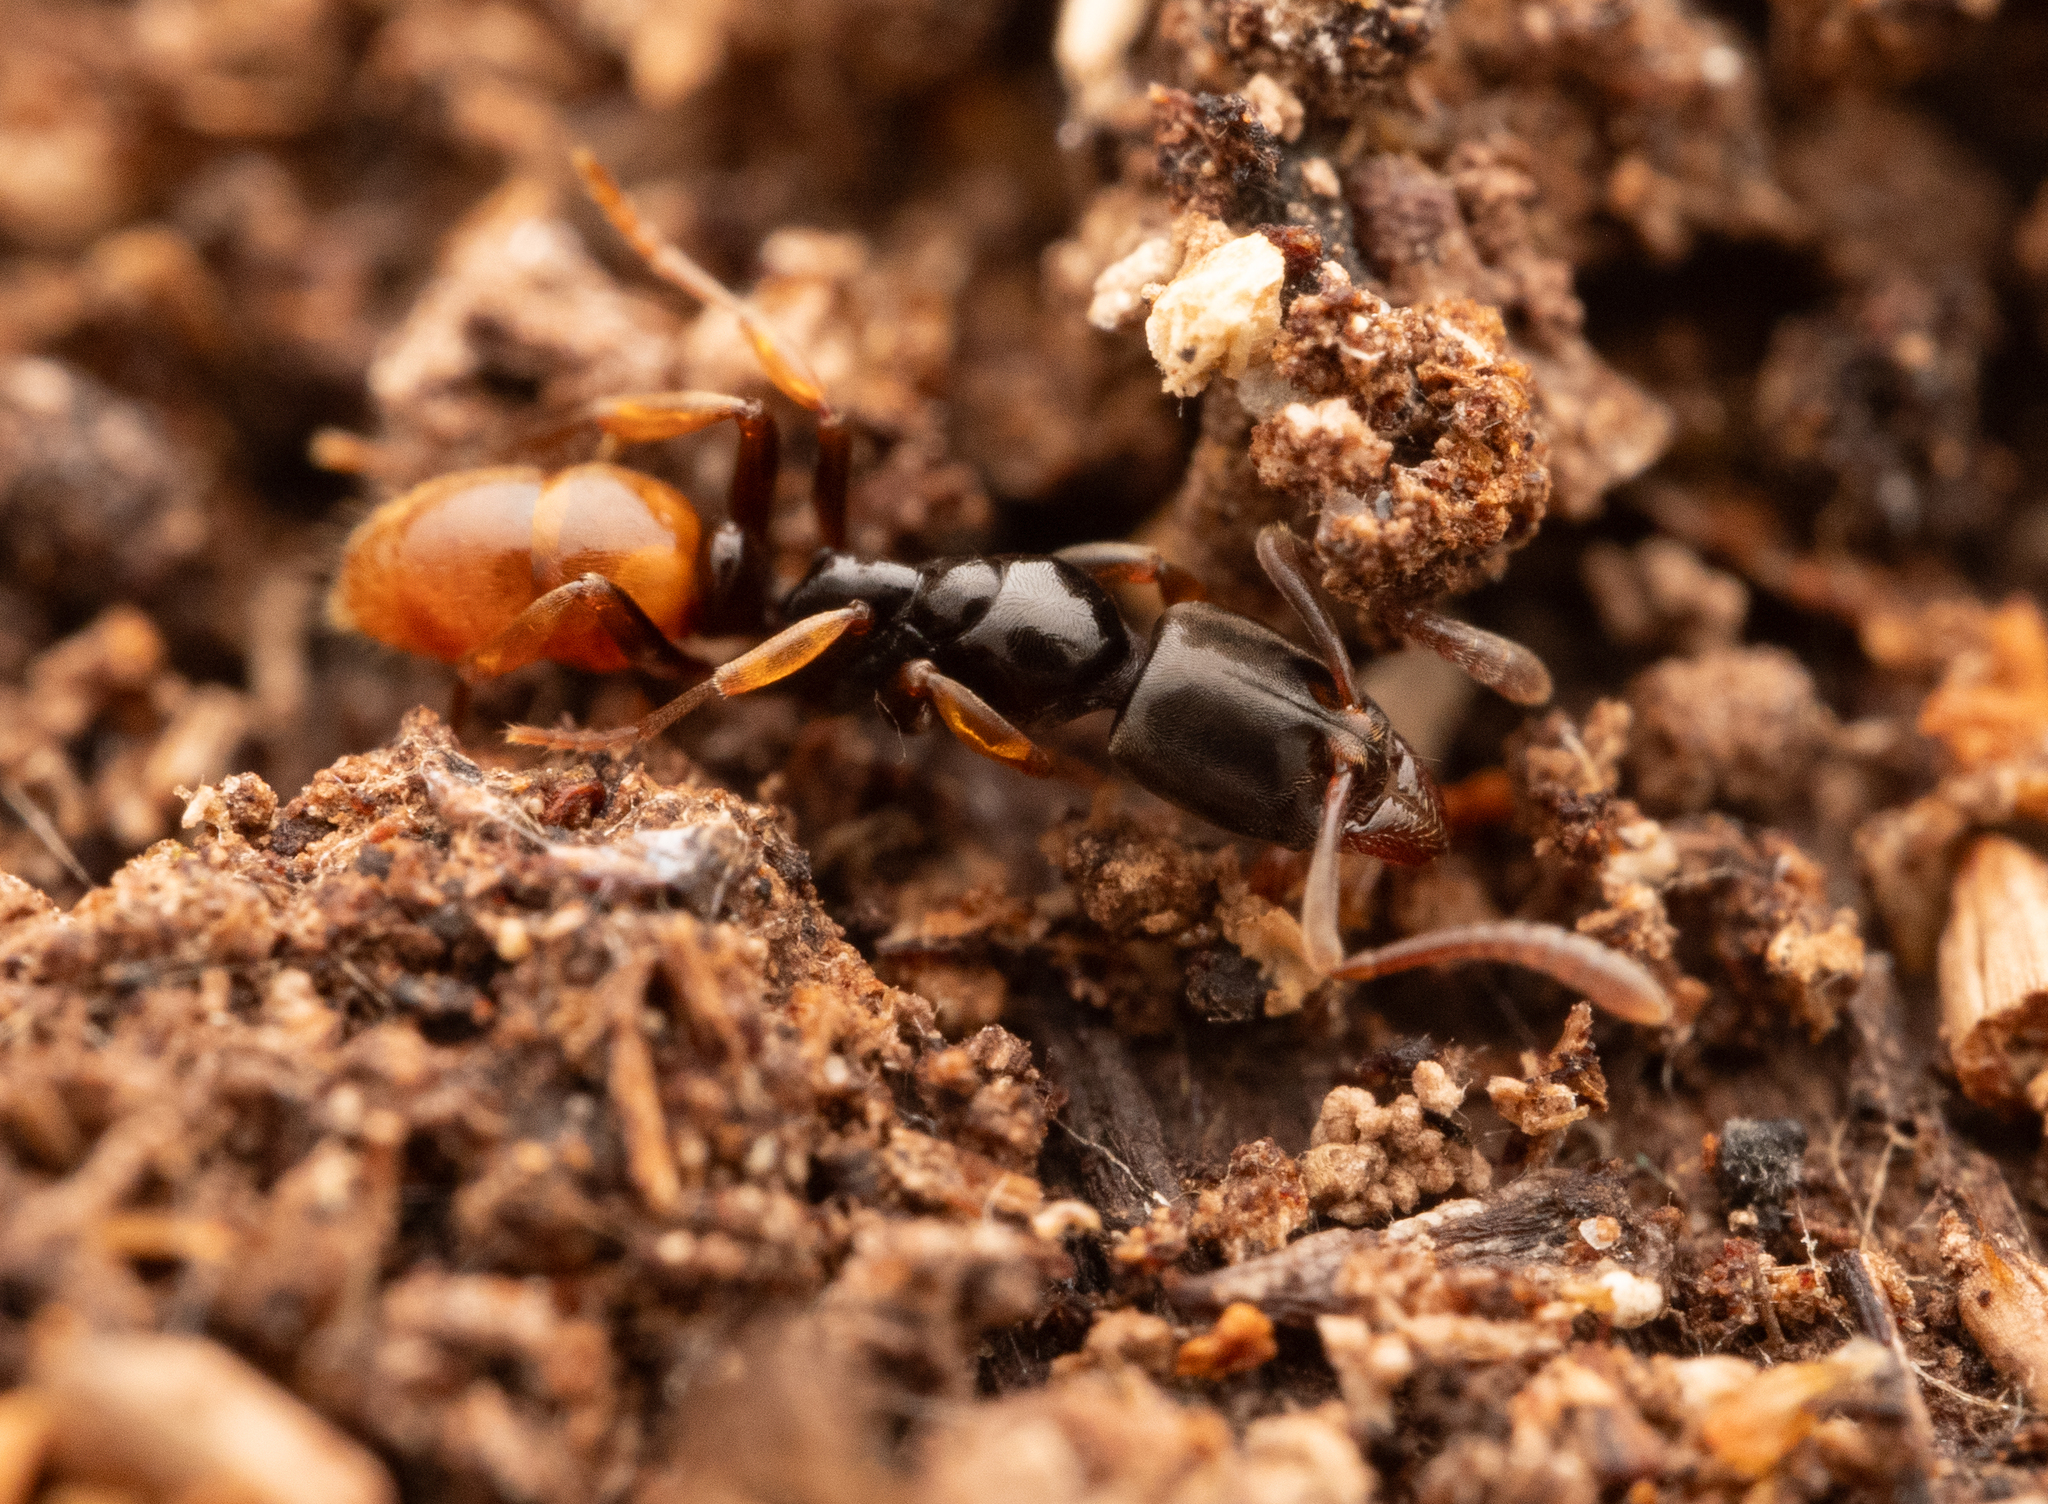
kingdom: Animalia
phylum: Arthropoda
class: Insecta
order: Hymenoptera
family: Formicidae
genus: Hypoponera
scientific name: Hypoponera herbertonensis
